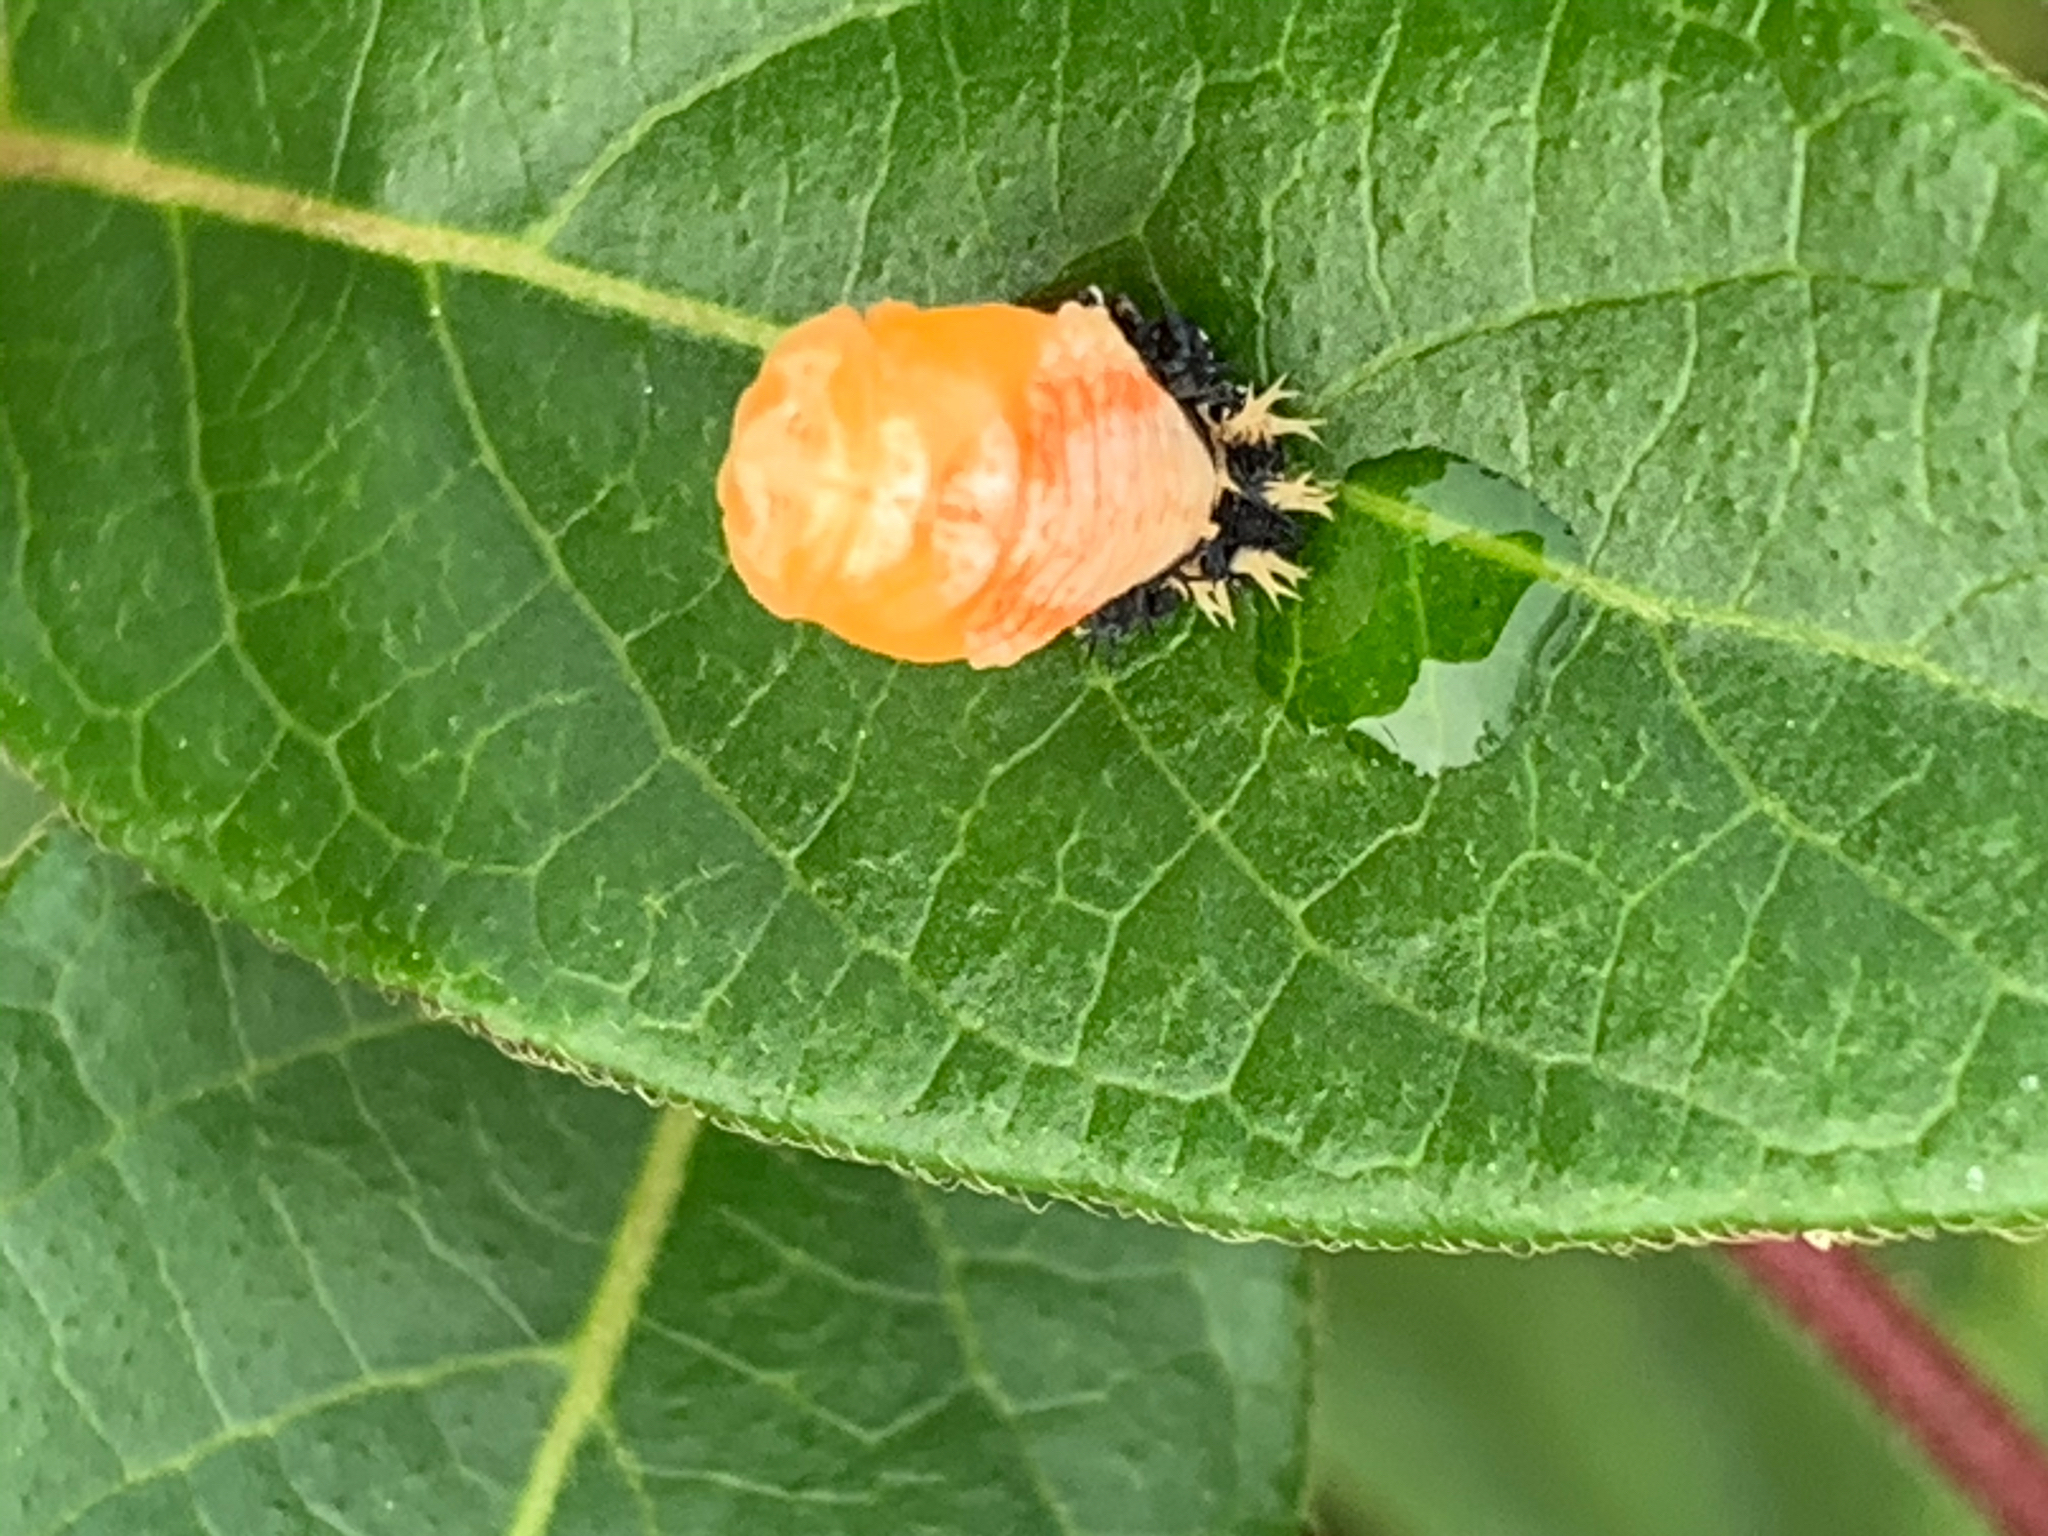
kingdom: Animalia
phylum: Arthropoda
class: Insecta
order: Coleoptera
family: Coccinellidae
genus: Harmonia
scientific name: Harmonia axyridis
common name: Harlequin ladybird
